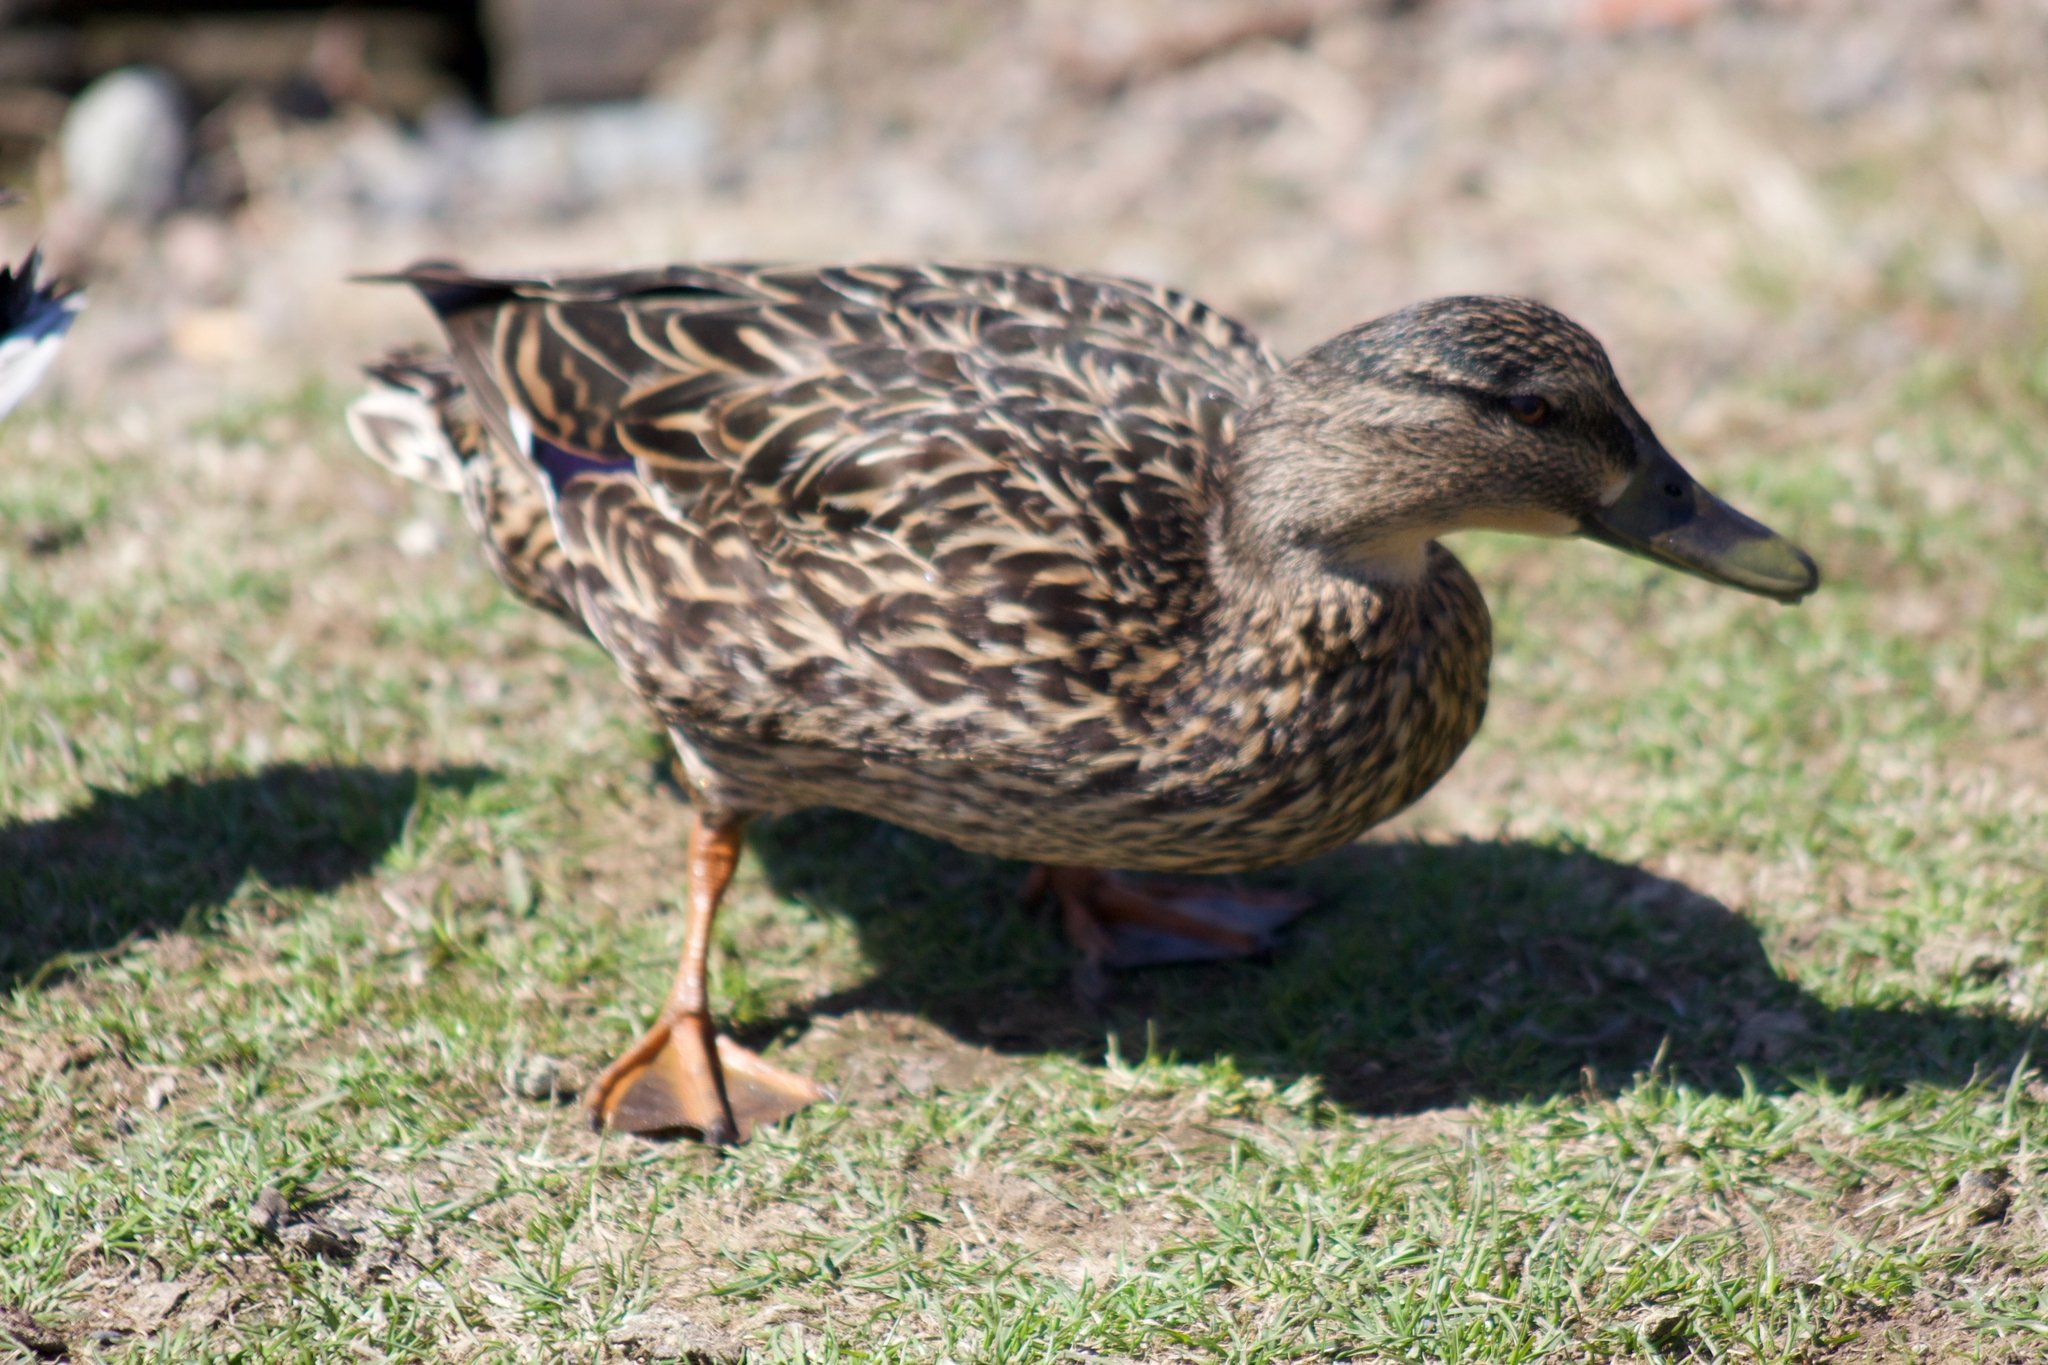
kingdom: Animalia
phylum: Chordata
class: Aves
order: Anseriformes
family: Anatidae
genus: Anas
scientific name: Anas platyrhynchos
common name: Mallard
